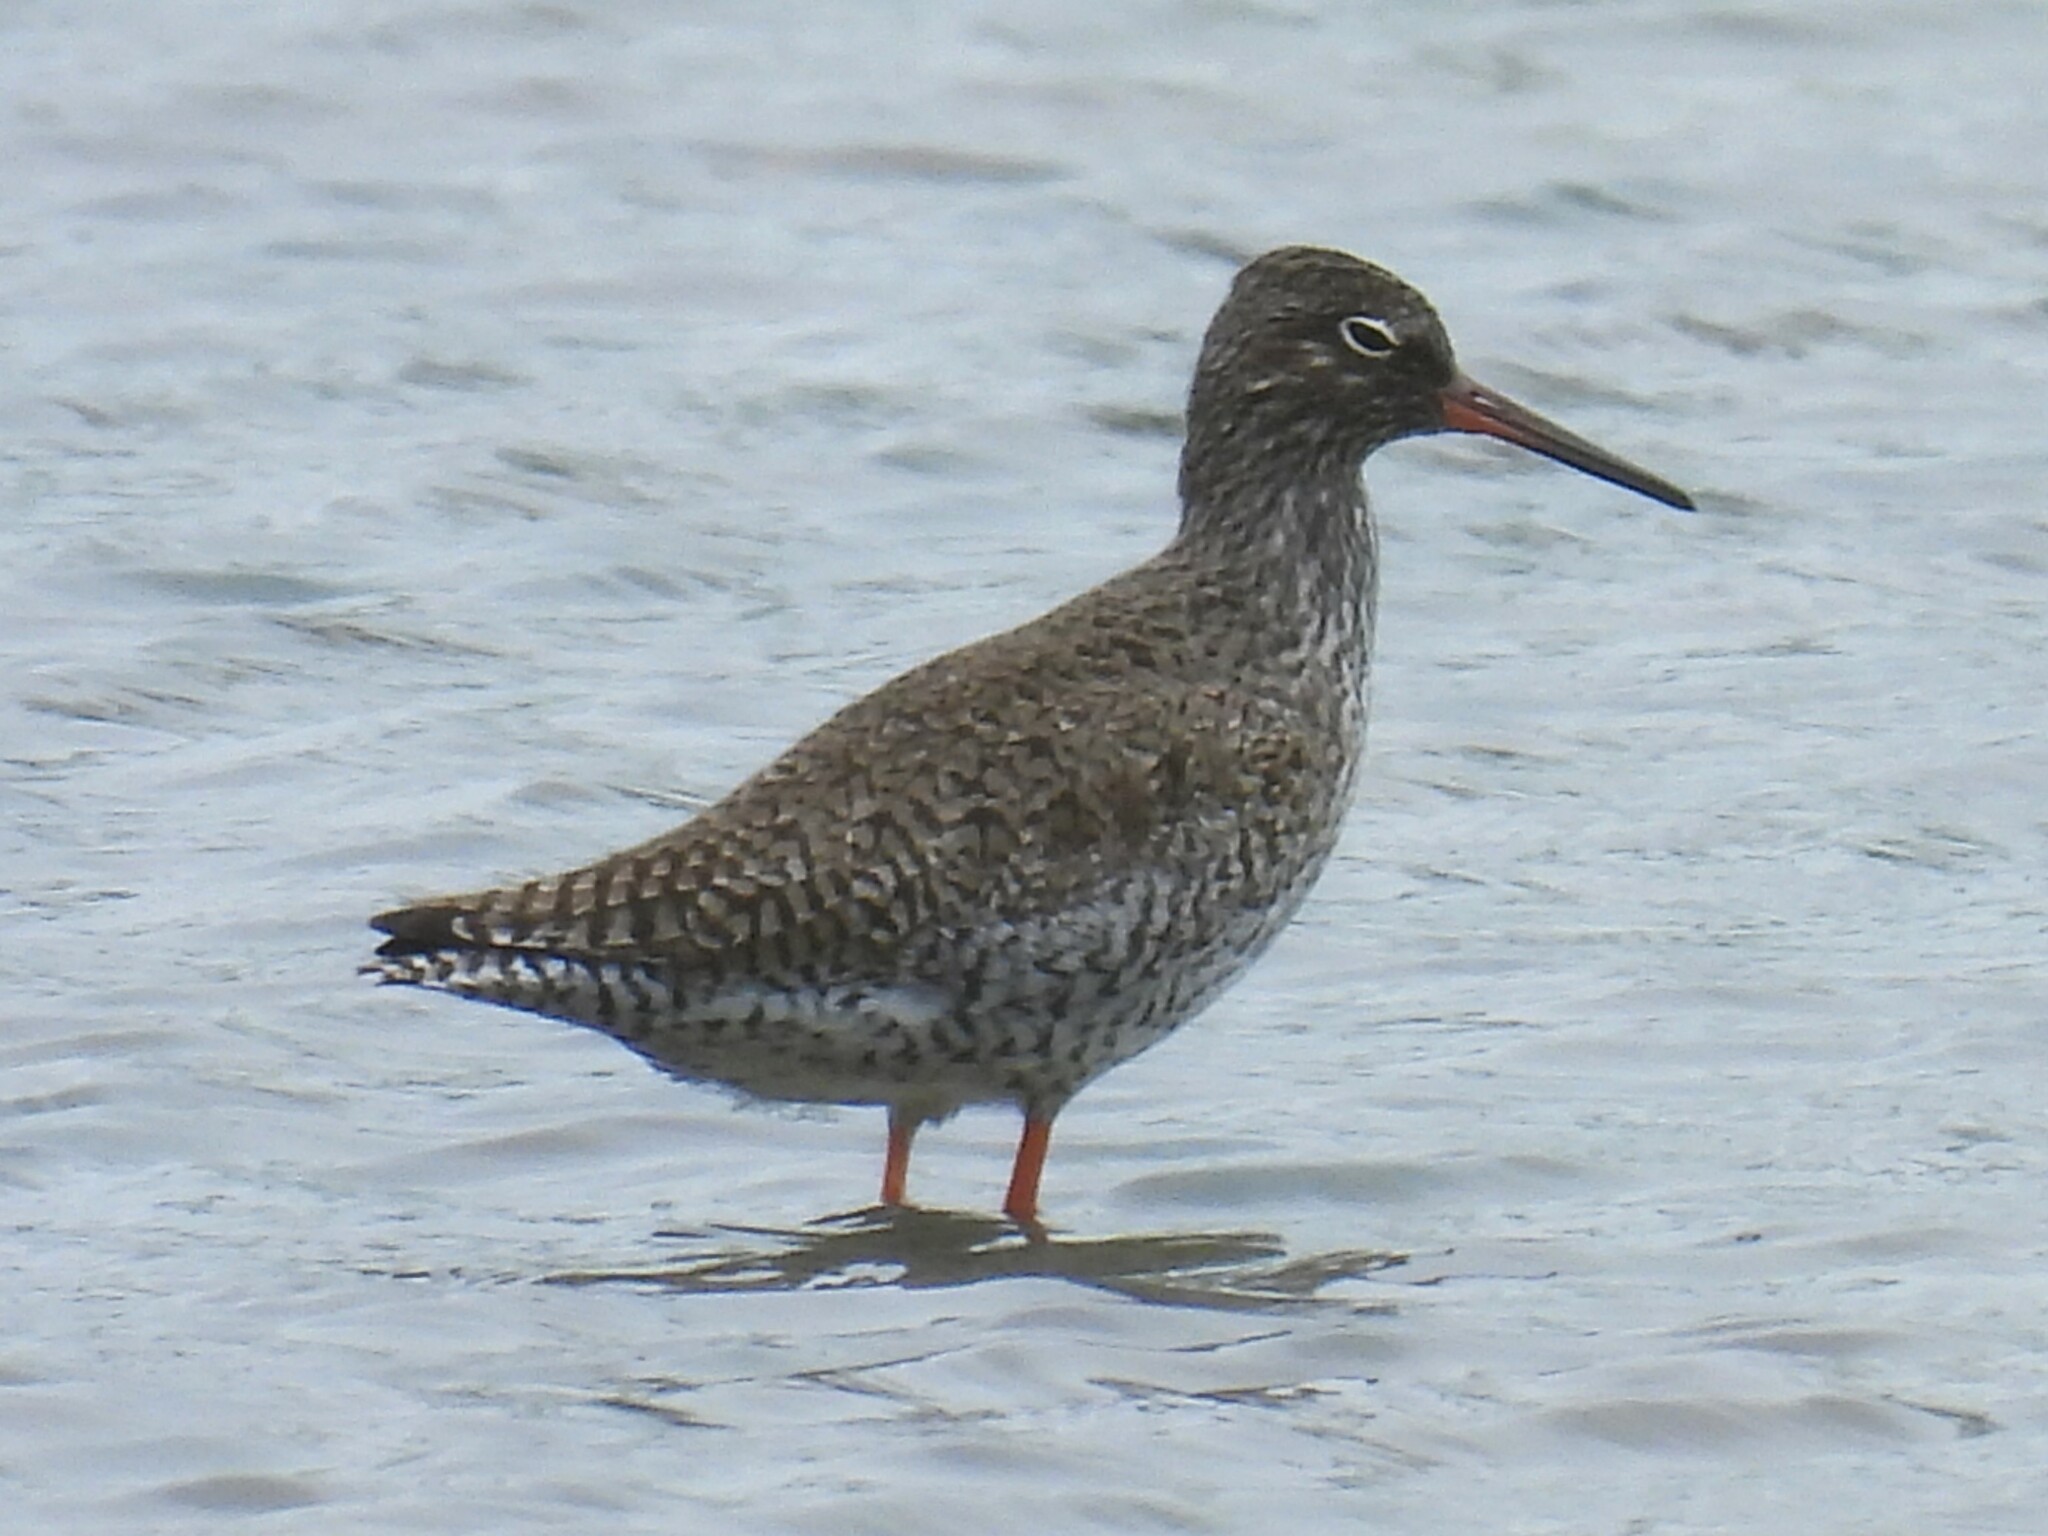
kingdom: Animalia
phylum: Chordata
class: Aves
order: Charadriiformes
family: Scolopacidae
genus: Tringa
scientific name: Tringa totanus
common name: Common redshank
